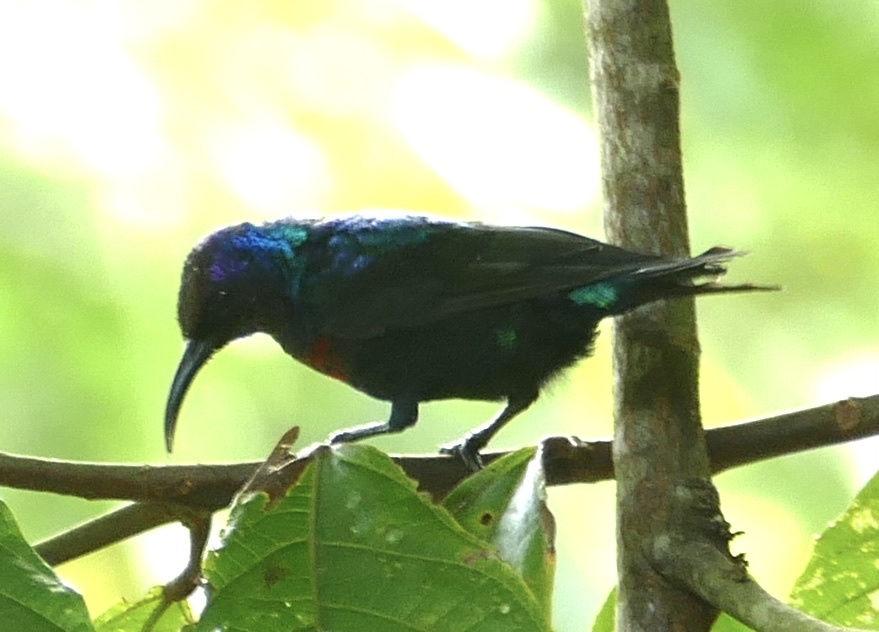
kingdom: Animalia
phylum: Chordata
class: Aves
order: Passeriformes
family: Nectariniidae
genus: Cinnyris
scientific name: Cinnyris coccinigastrus
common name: Splendid sunbird
